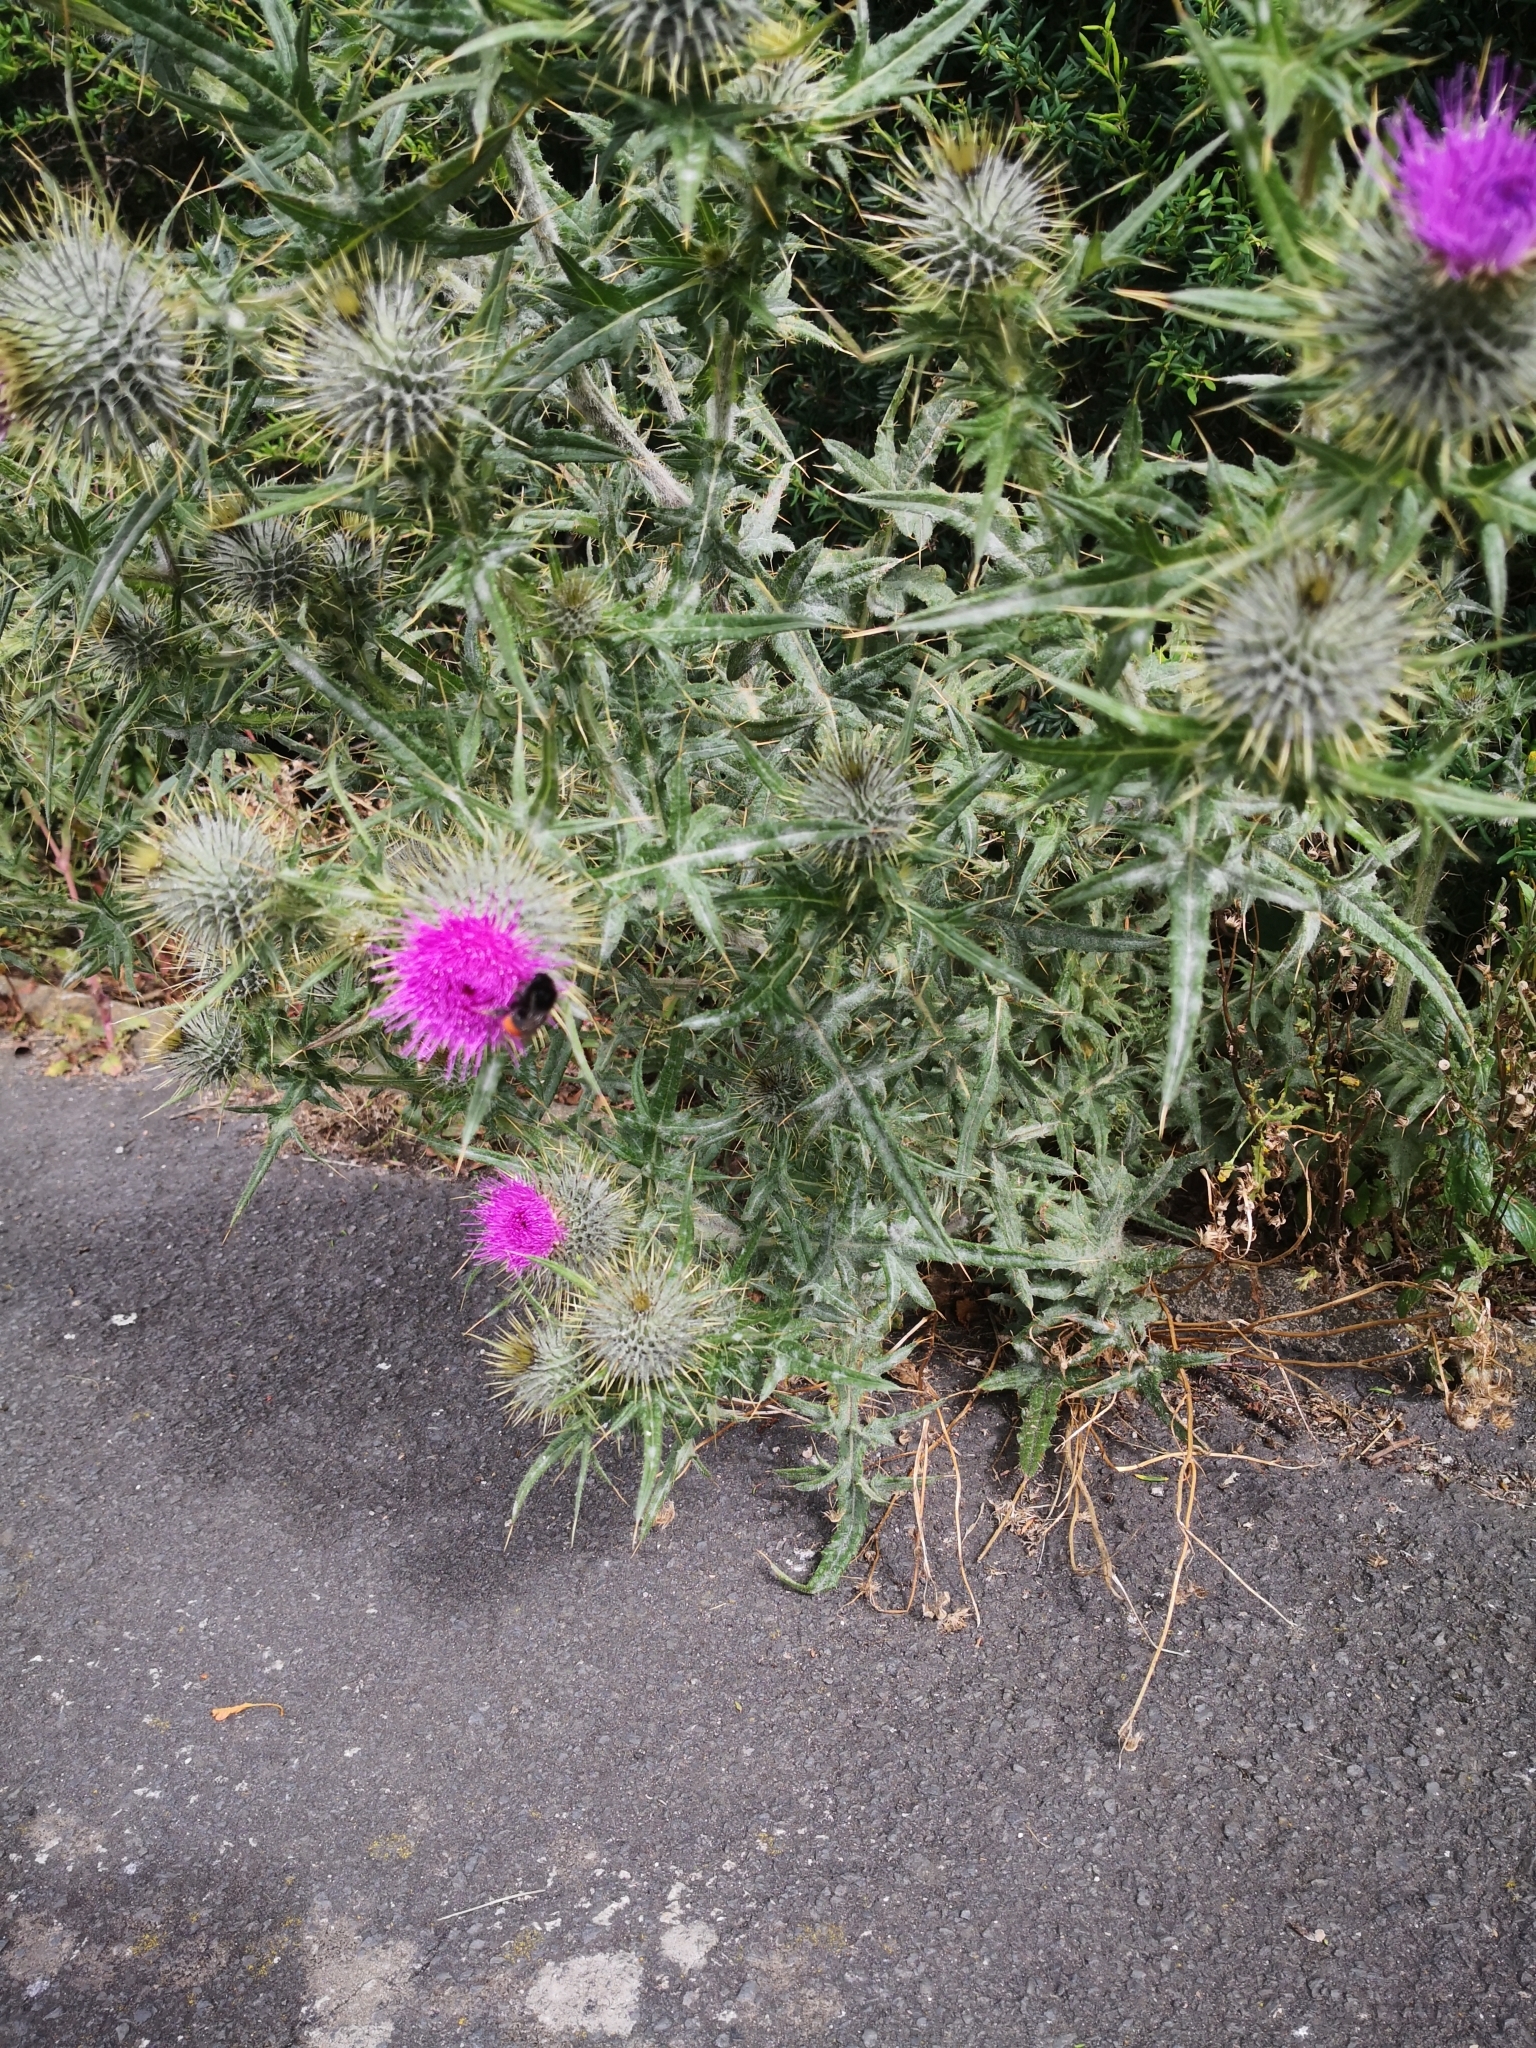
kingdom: Animalia
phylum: Arthropoda
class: Insecta
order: Hymenoptera
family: Apidae
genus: Bombus
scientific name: Bombus lapidarius
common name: Large red-tailed humble-bee
